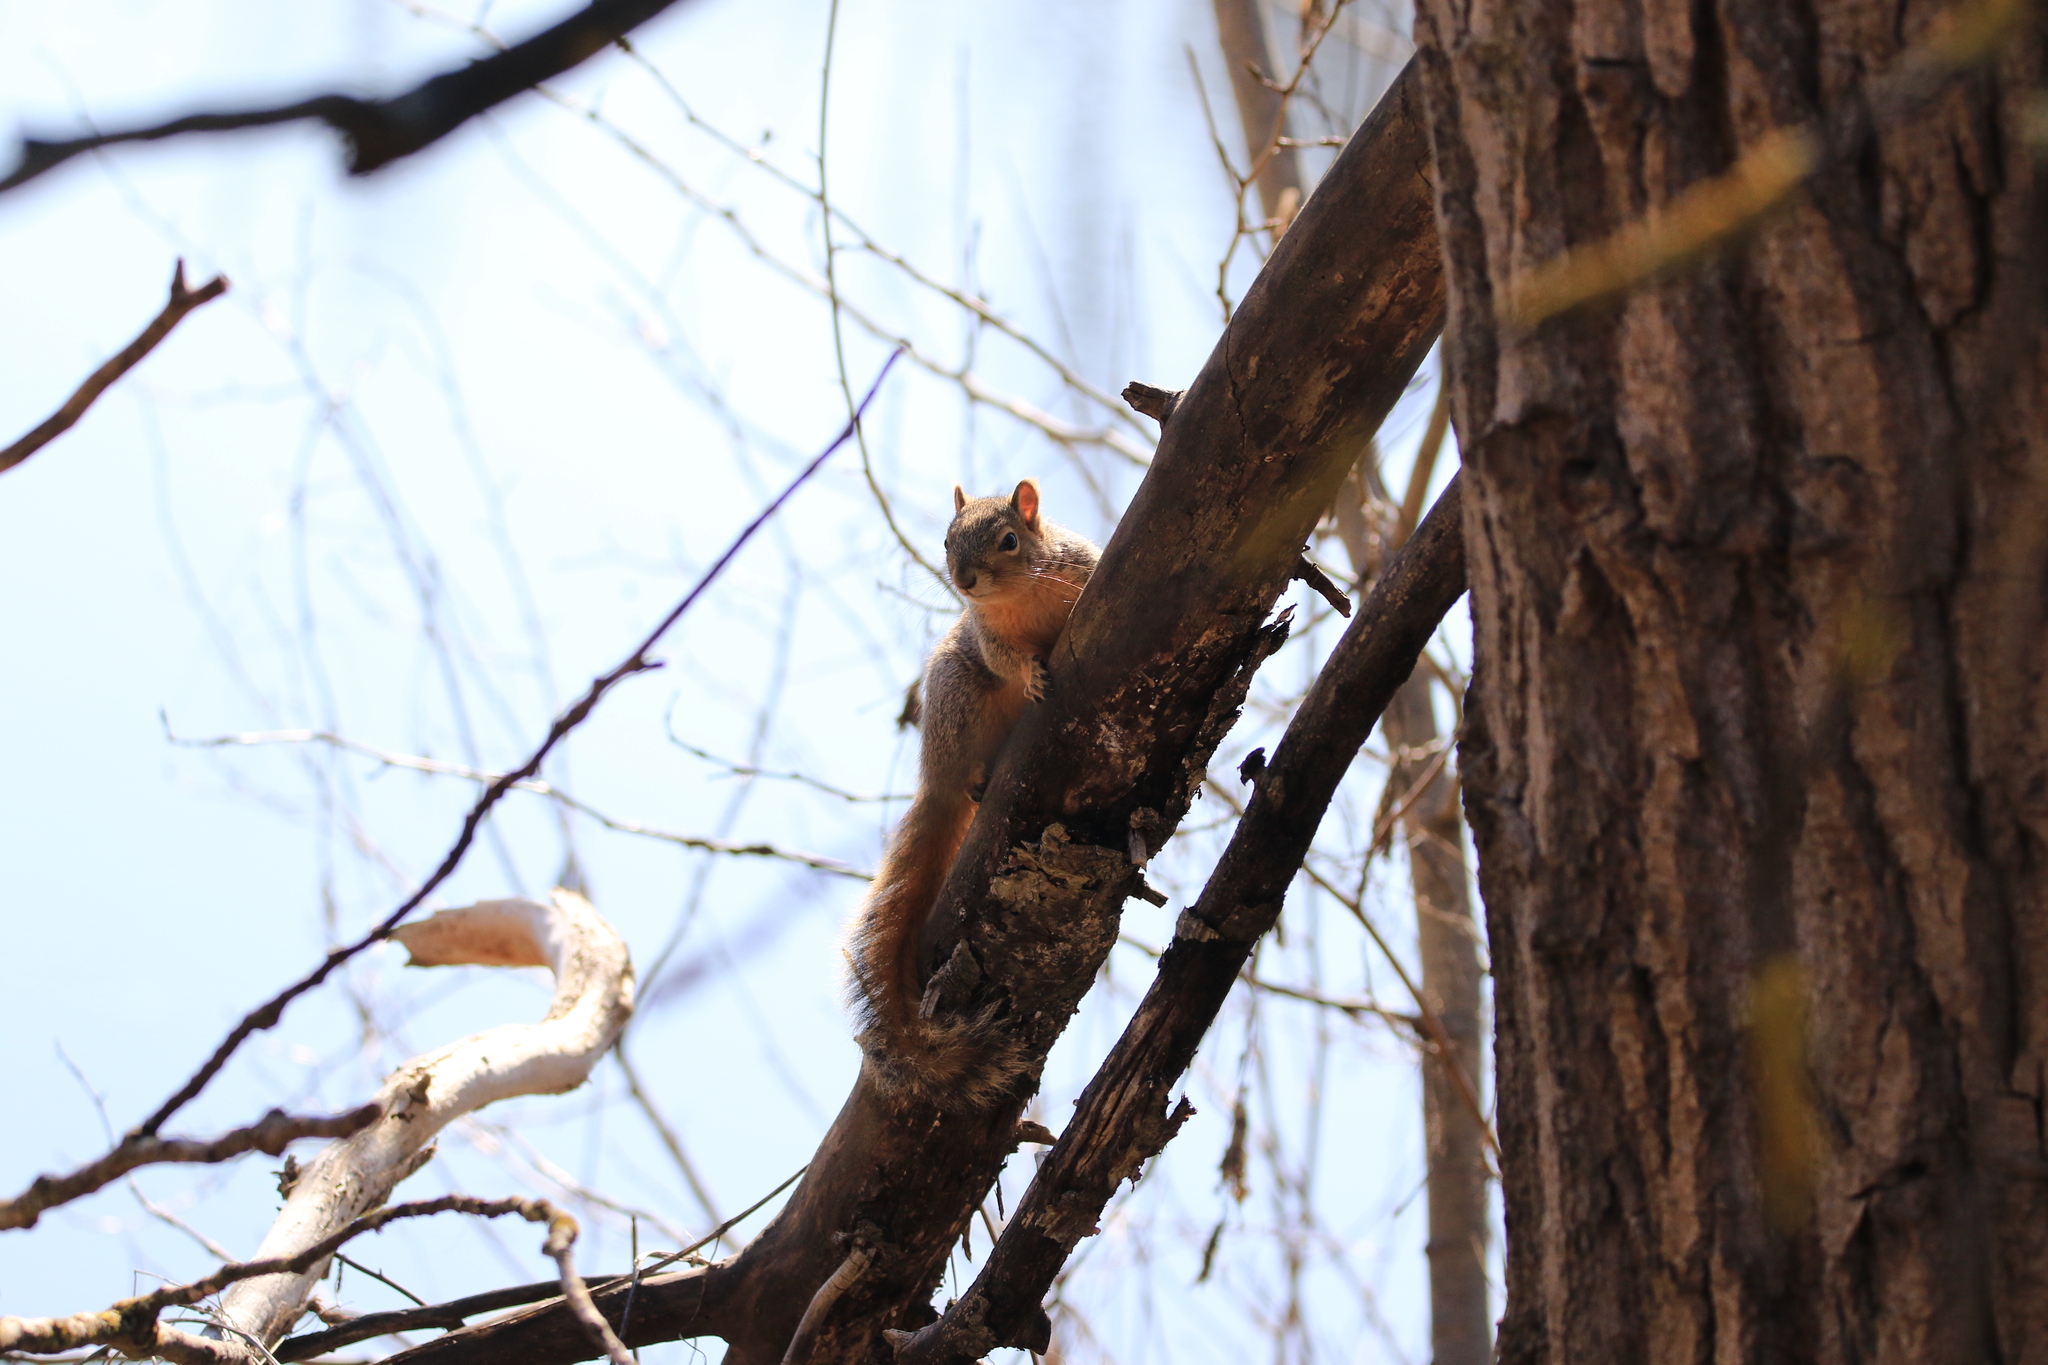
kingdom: Animalia
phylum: Chordata
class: Mammalia
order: Rodentia
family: Sciuridae
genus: Sciurus
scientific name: Sciurus niger
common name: Fox squirrel
